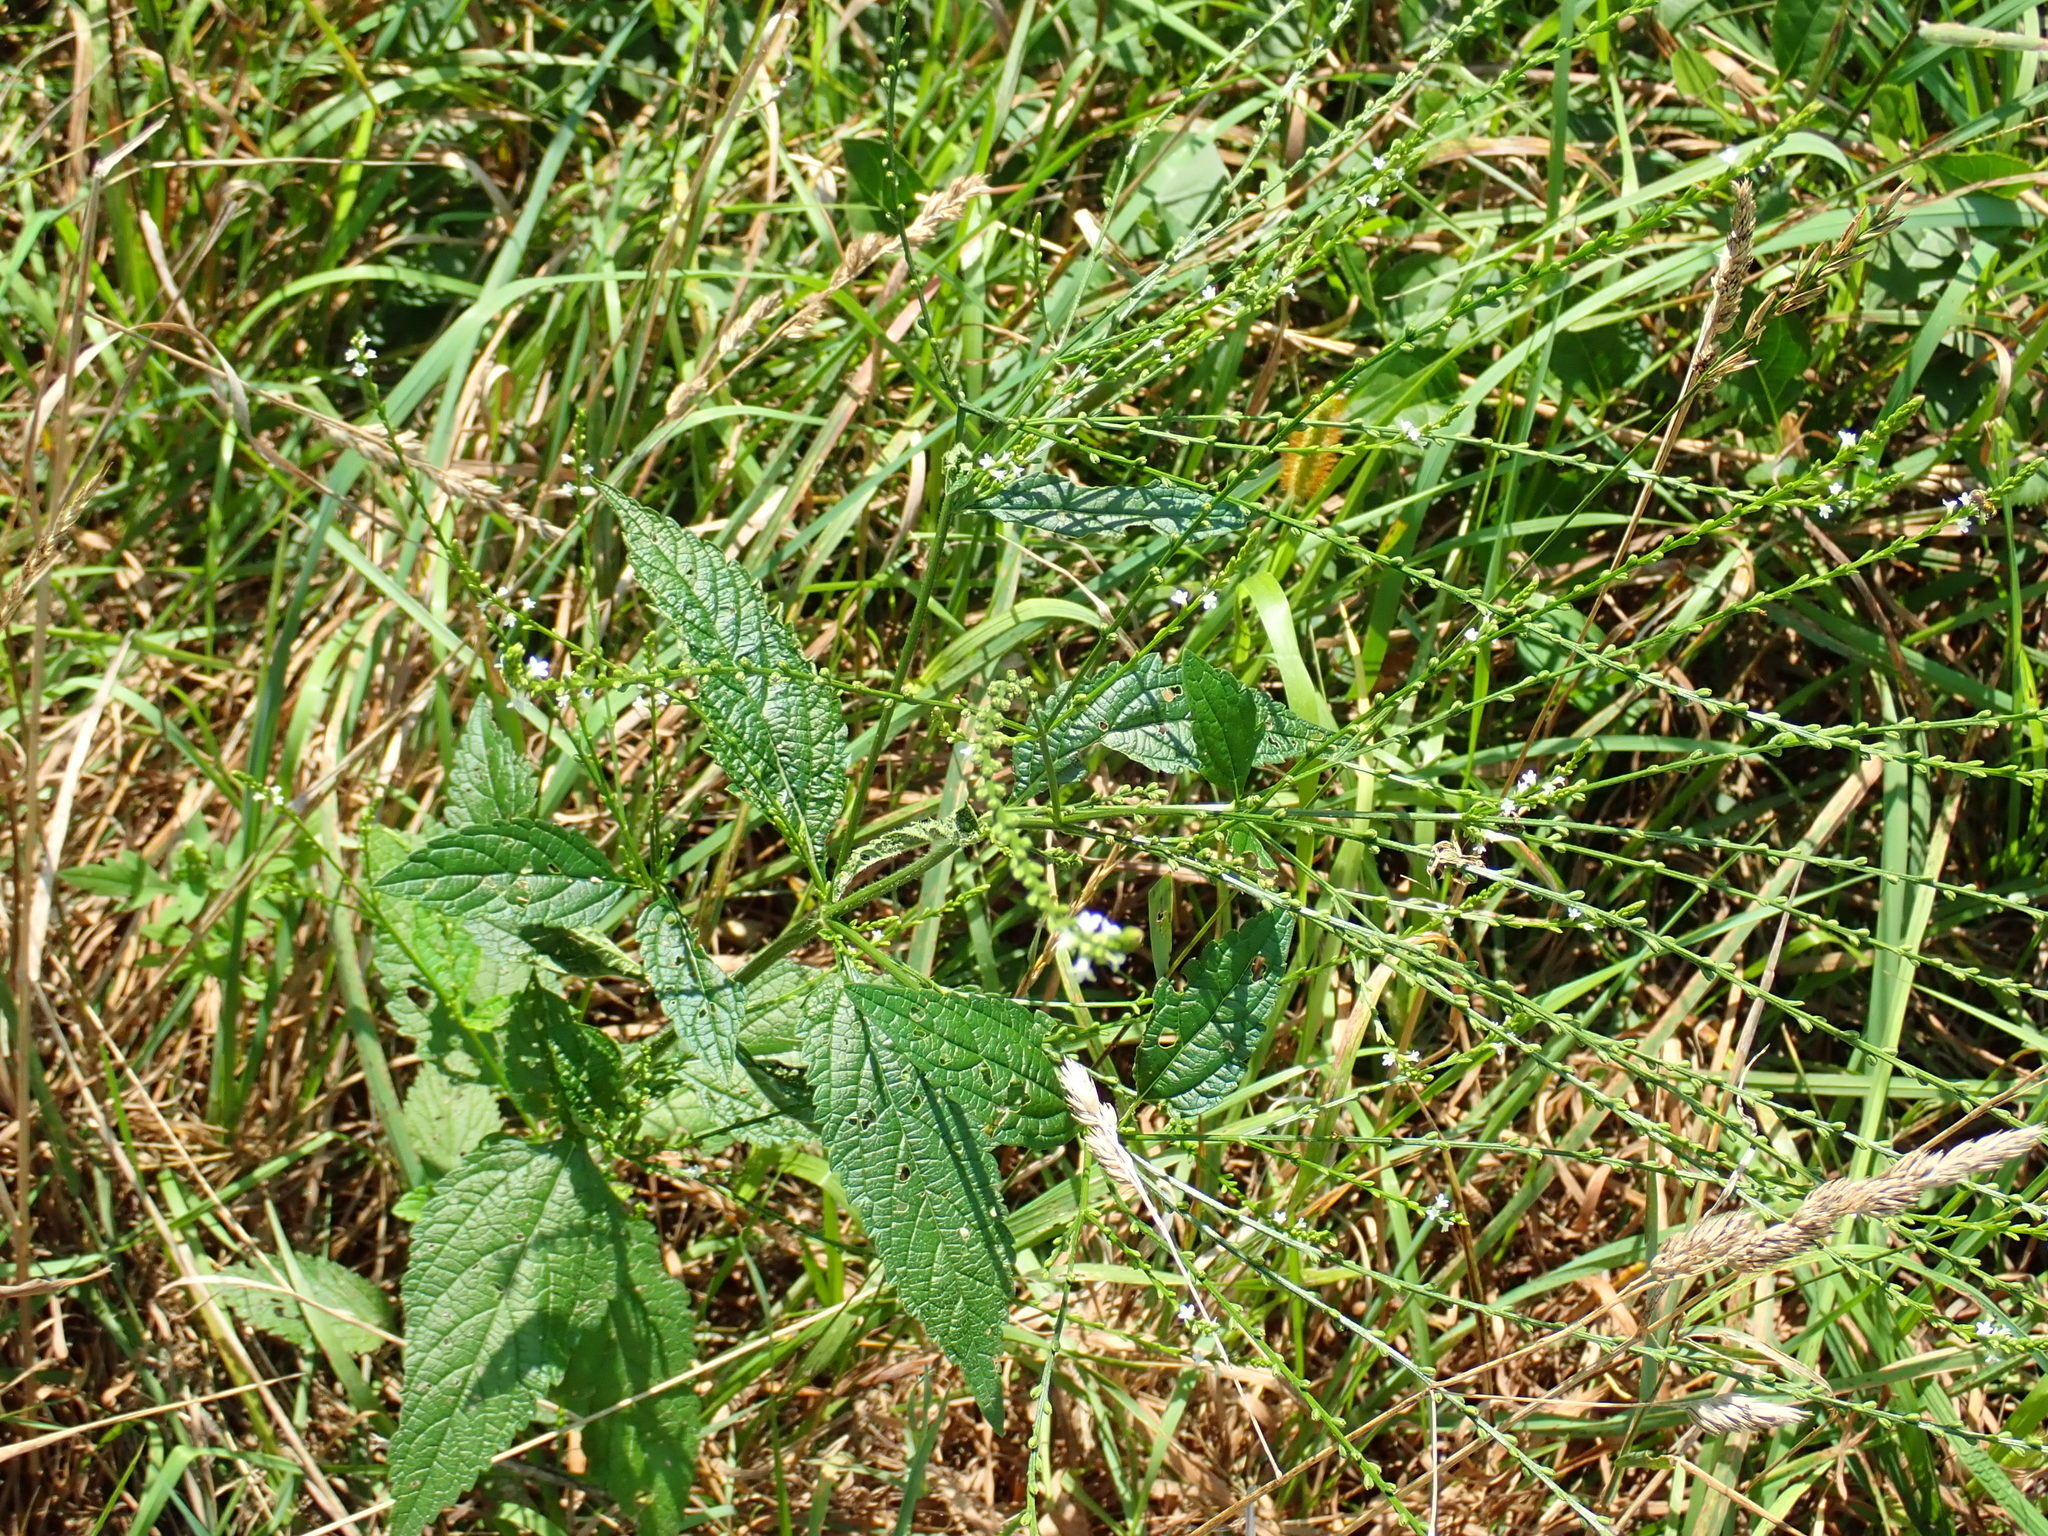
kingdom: Plantae
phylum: Tracheophyta
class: Magnoliopsida
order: Lamiales
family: Verbenaceae
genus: Verbena
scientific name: Verbena urticifolia
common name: Nettle-leaved vervain
